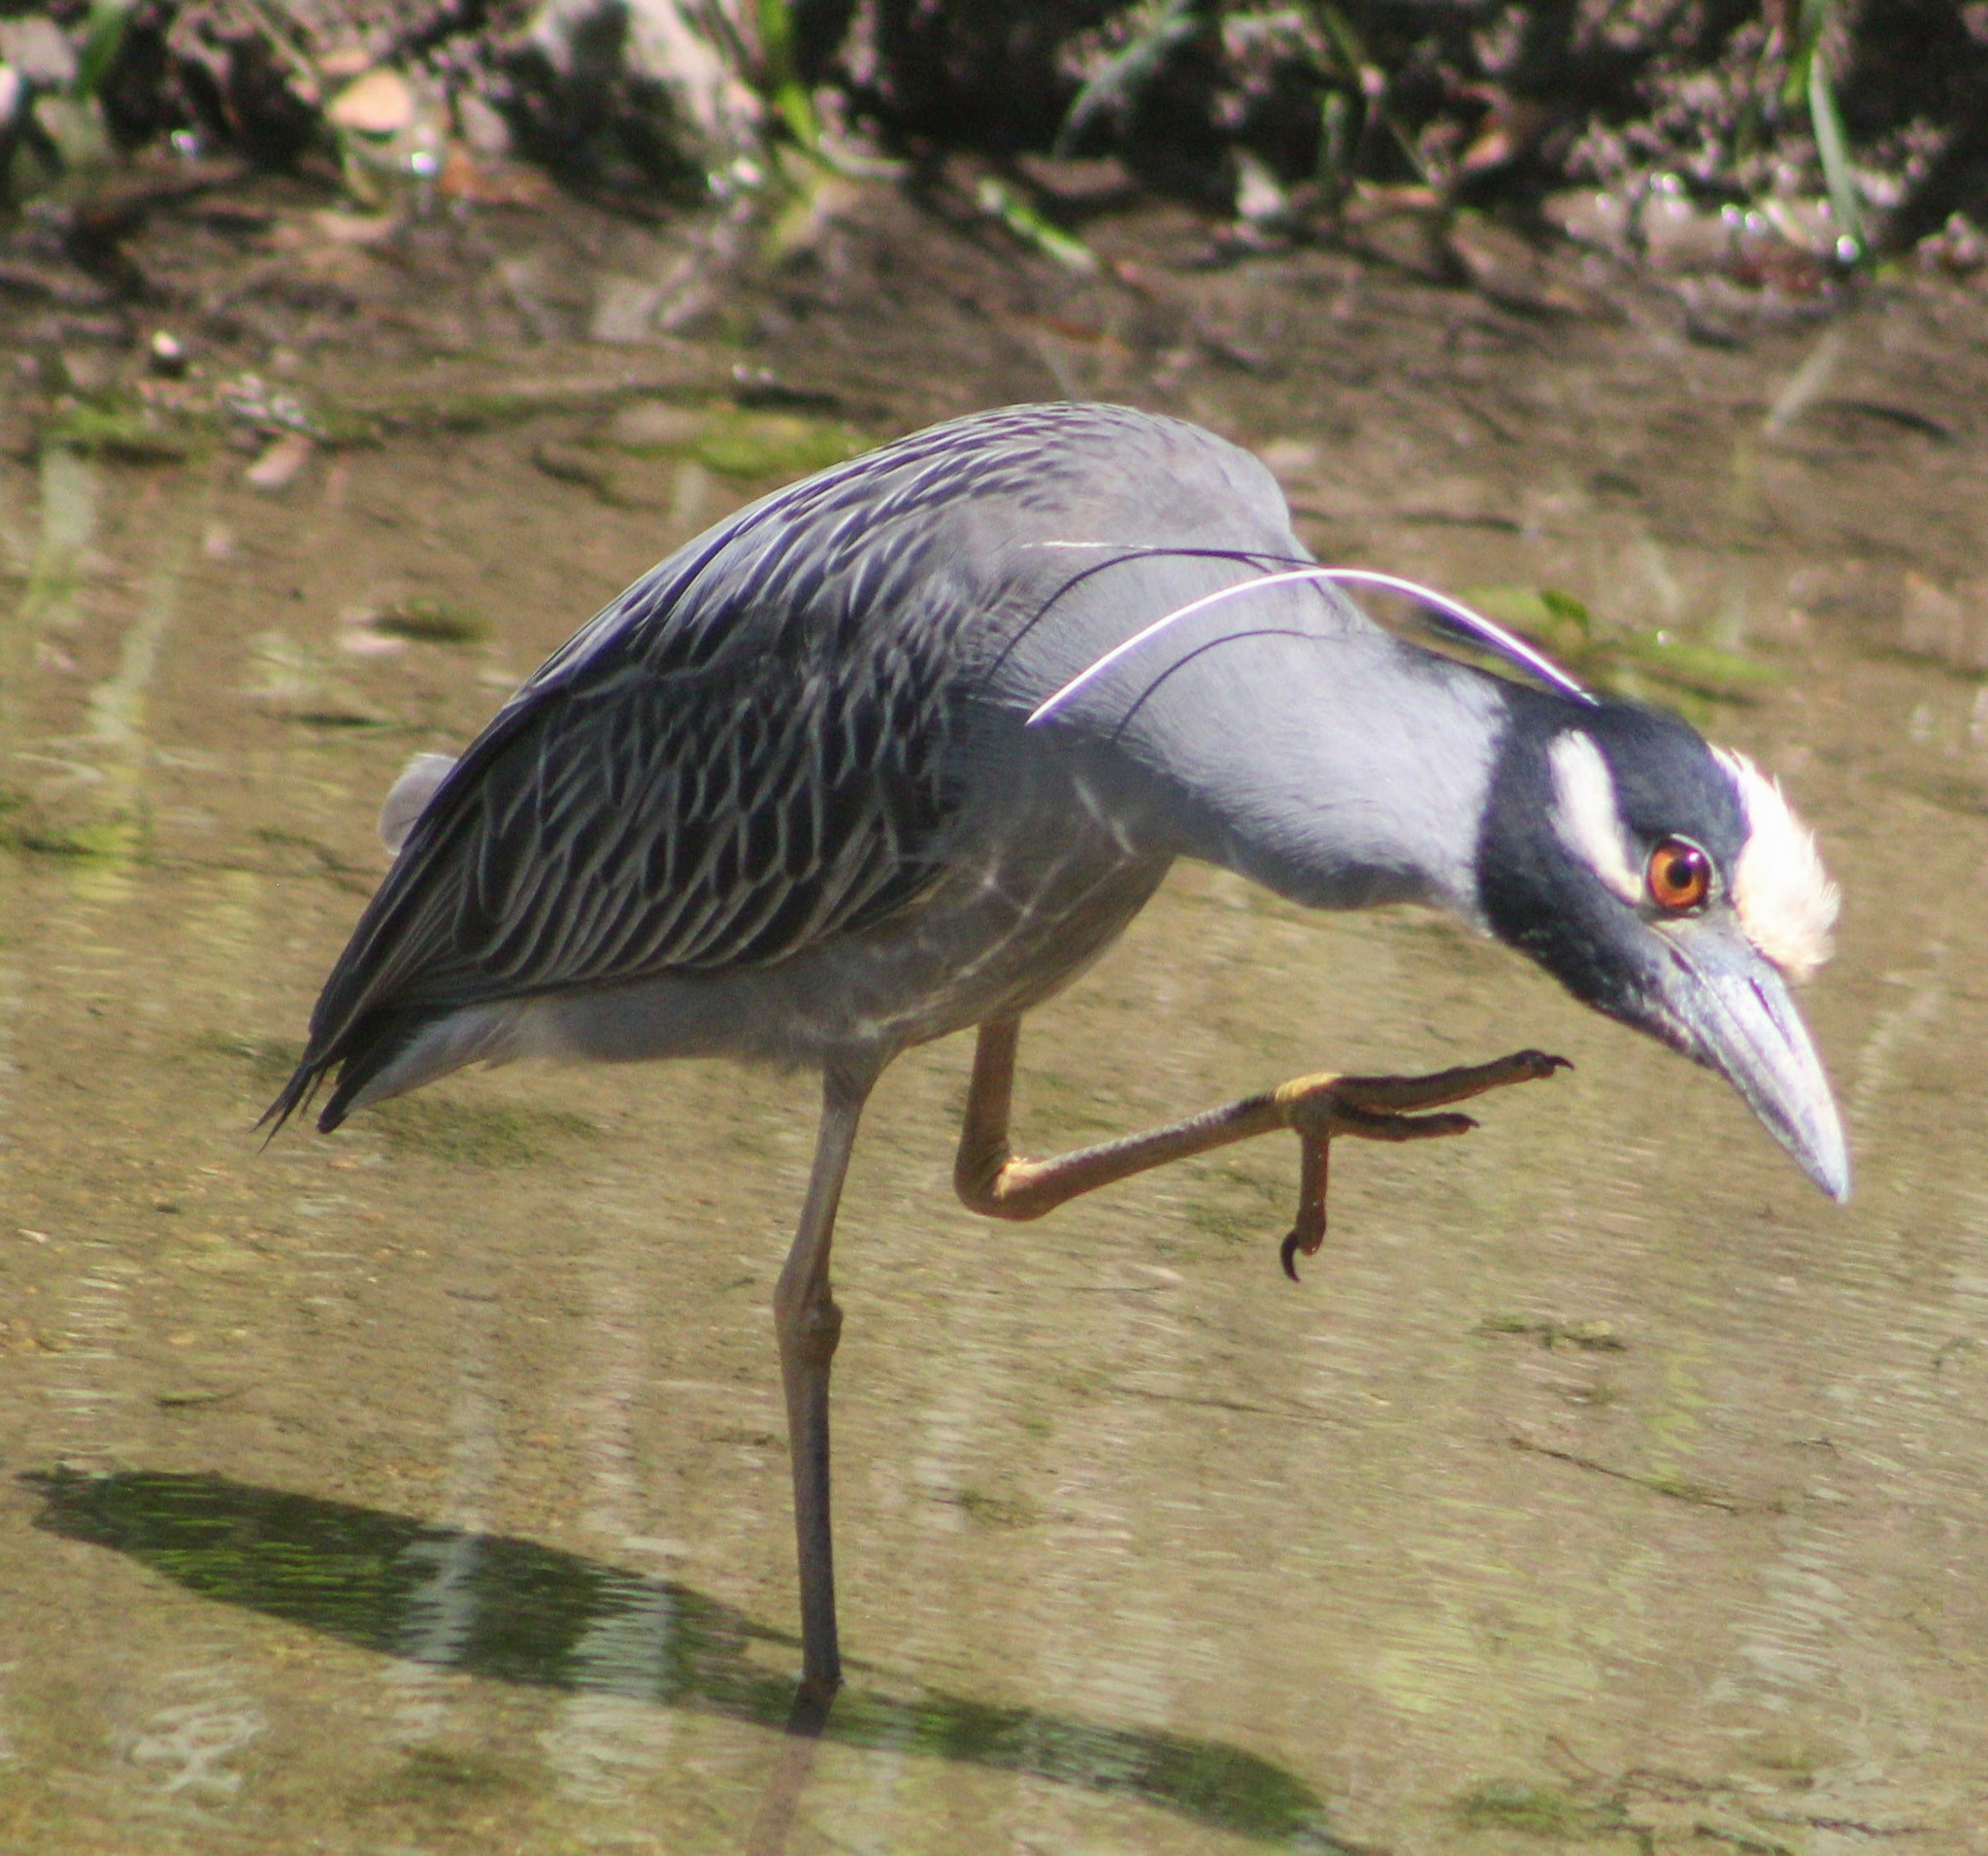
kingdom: Animalia
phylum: Chordata
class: Aves
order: Pelecaniformes
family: Ardeidae
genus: Nyctanassa
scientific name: Nyctanassa violacea
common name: Yellow-crowned night heron
